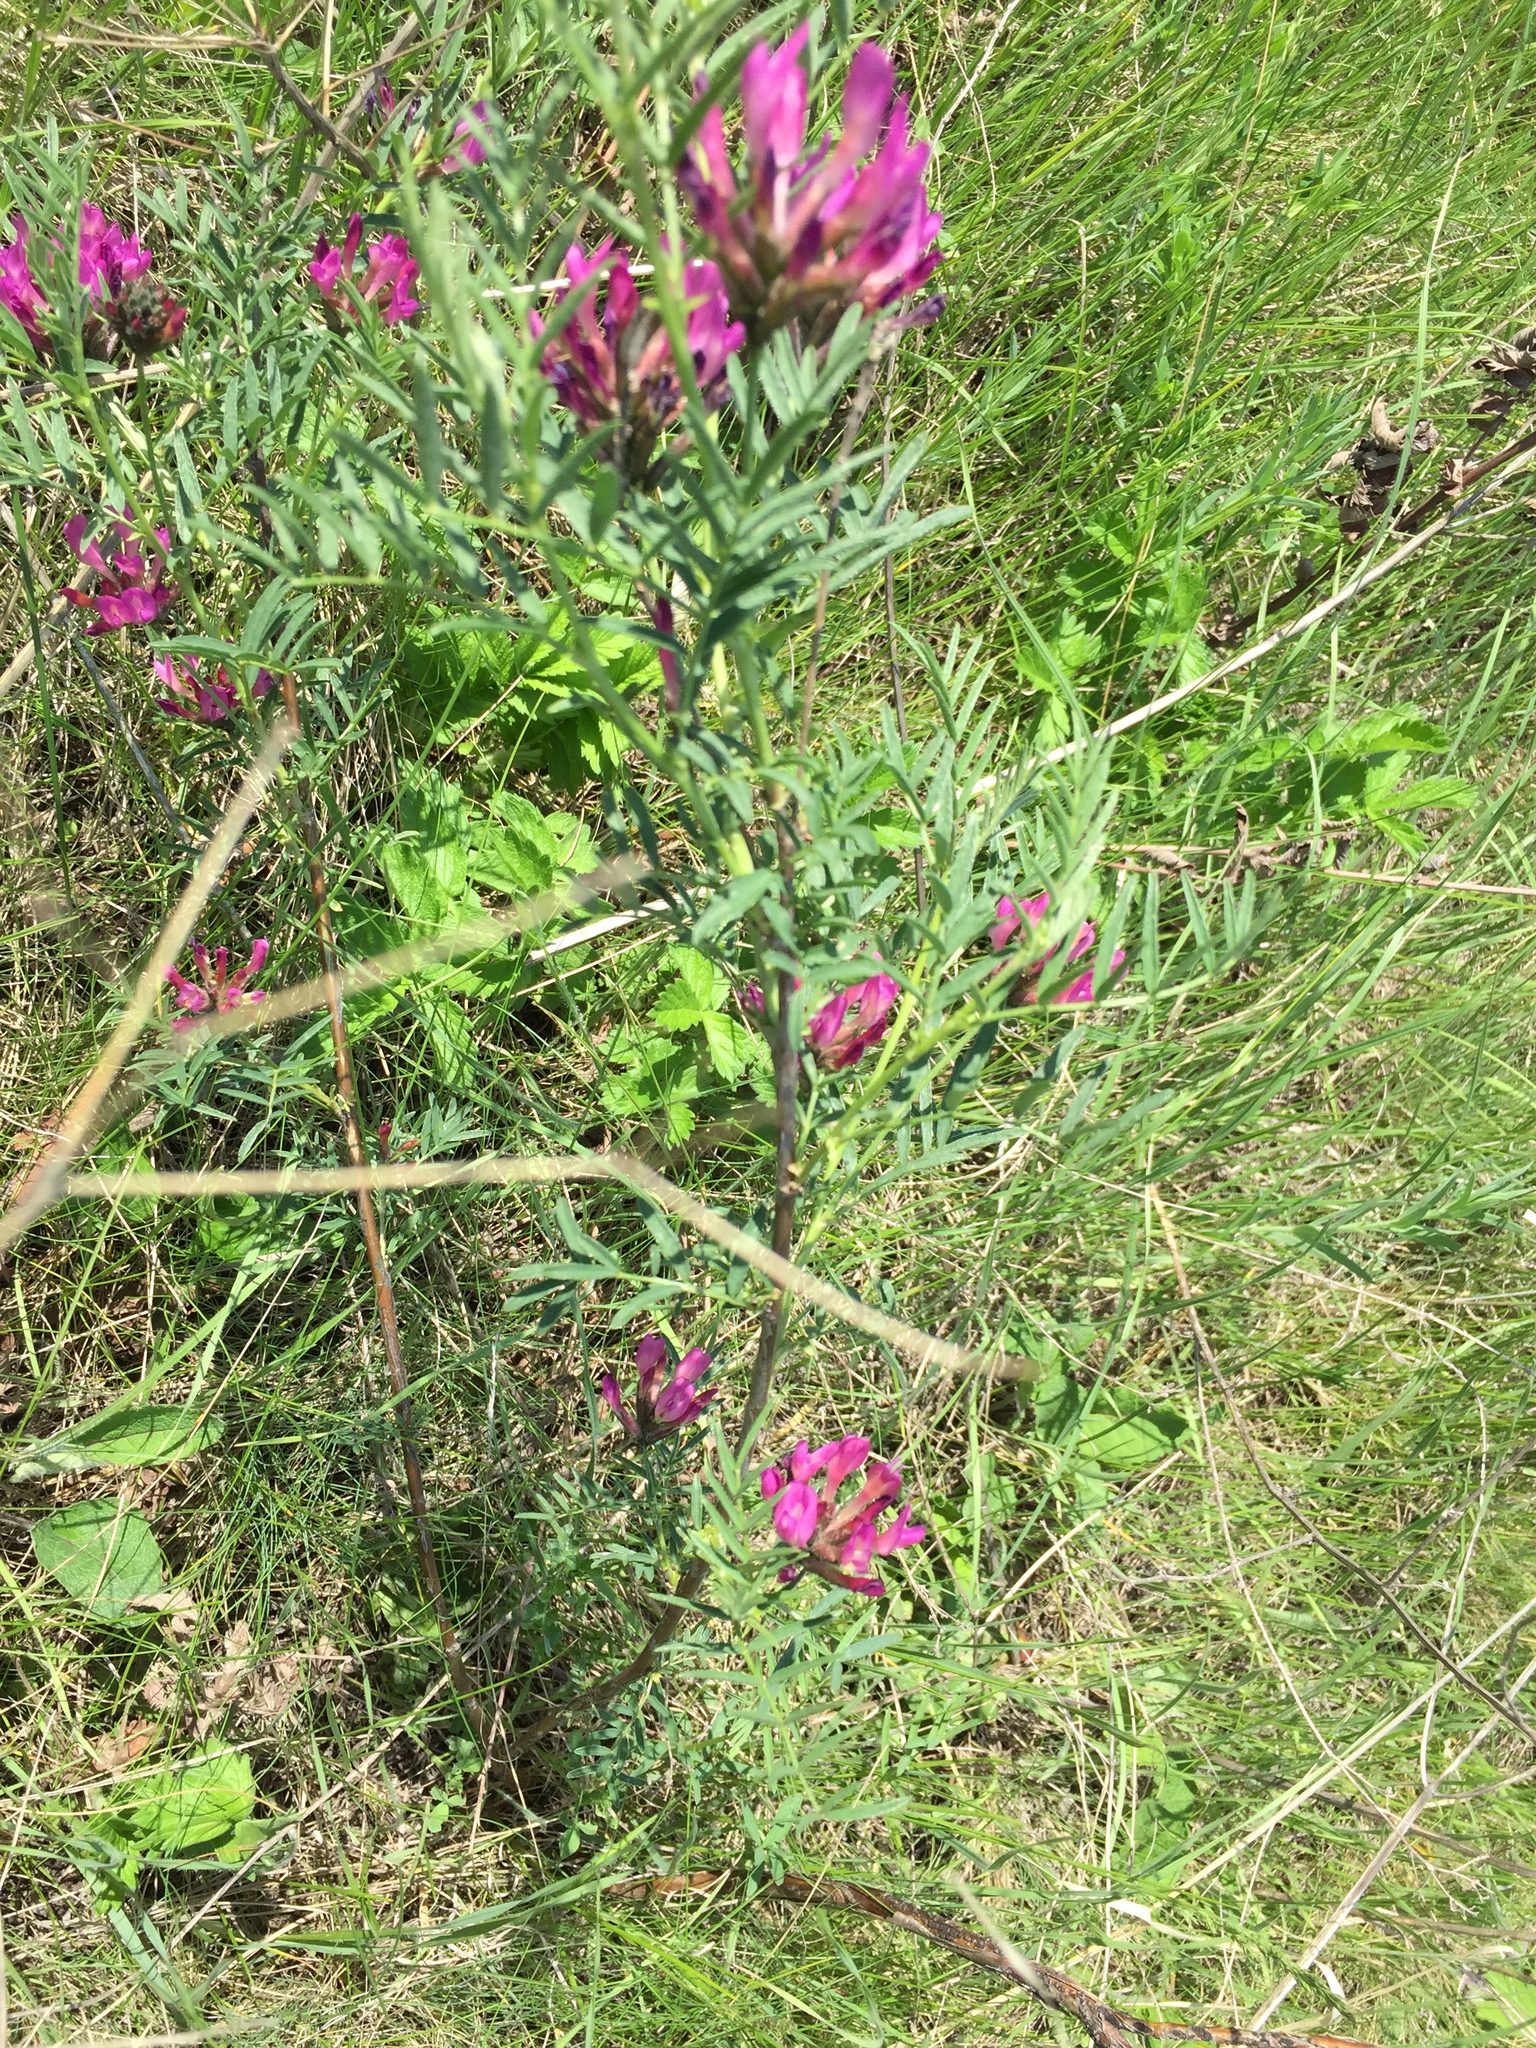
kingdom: Plantae
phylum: Tracheophyta
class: Magnoliopsida
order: Fabales
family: Fabaceae
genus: Astragalus
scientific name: Astragalus cornutus
